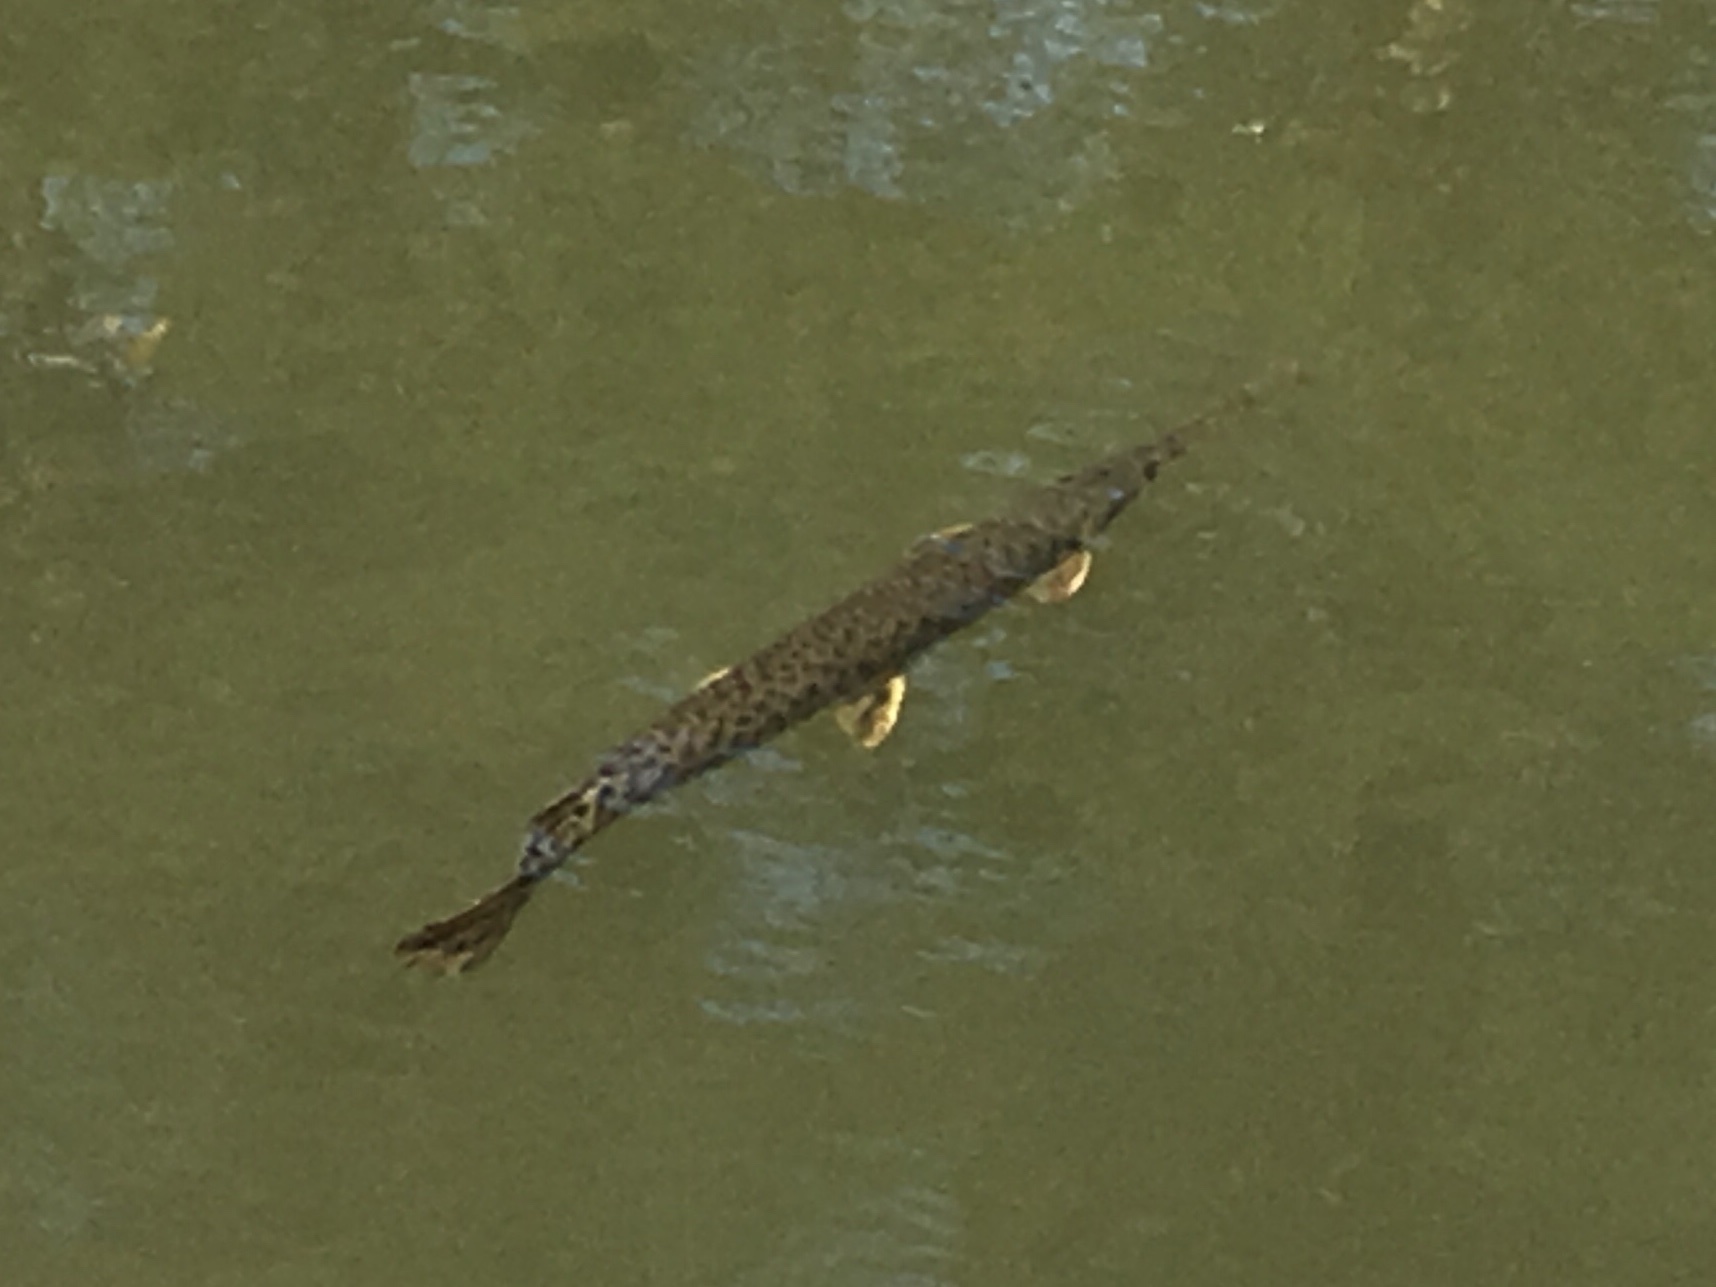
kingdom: Animalia
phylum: Chordata
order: Lepisosteiformes
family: Lepisosteidae
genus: Lepisosteus
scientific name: Lepisosteus osseus
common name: Longnose gar
